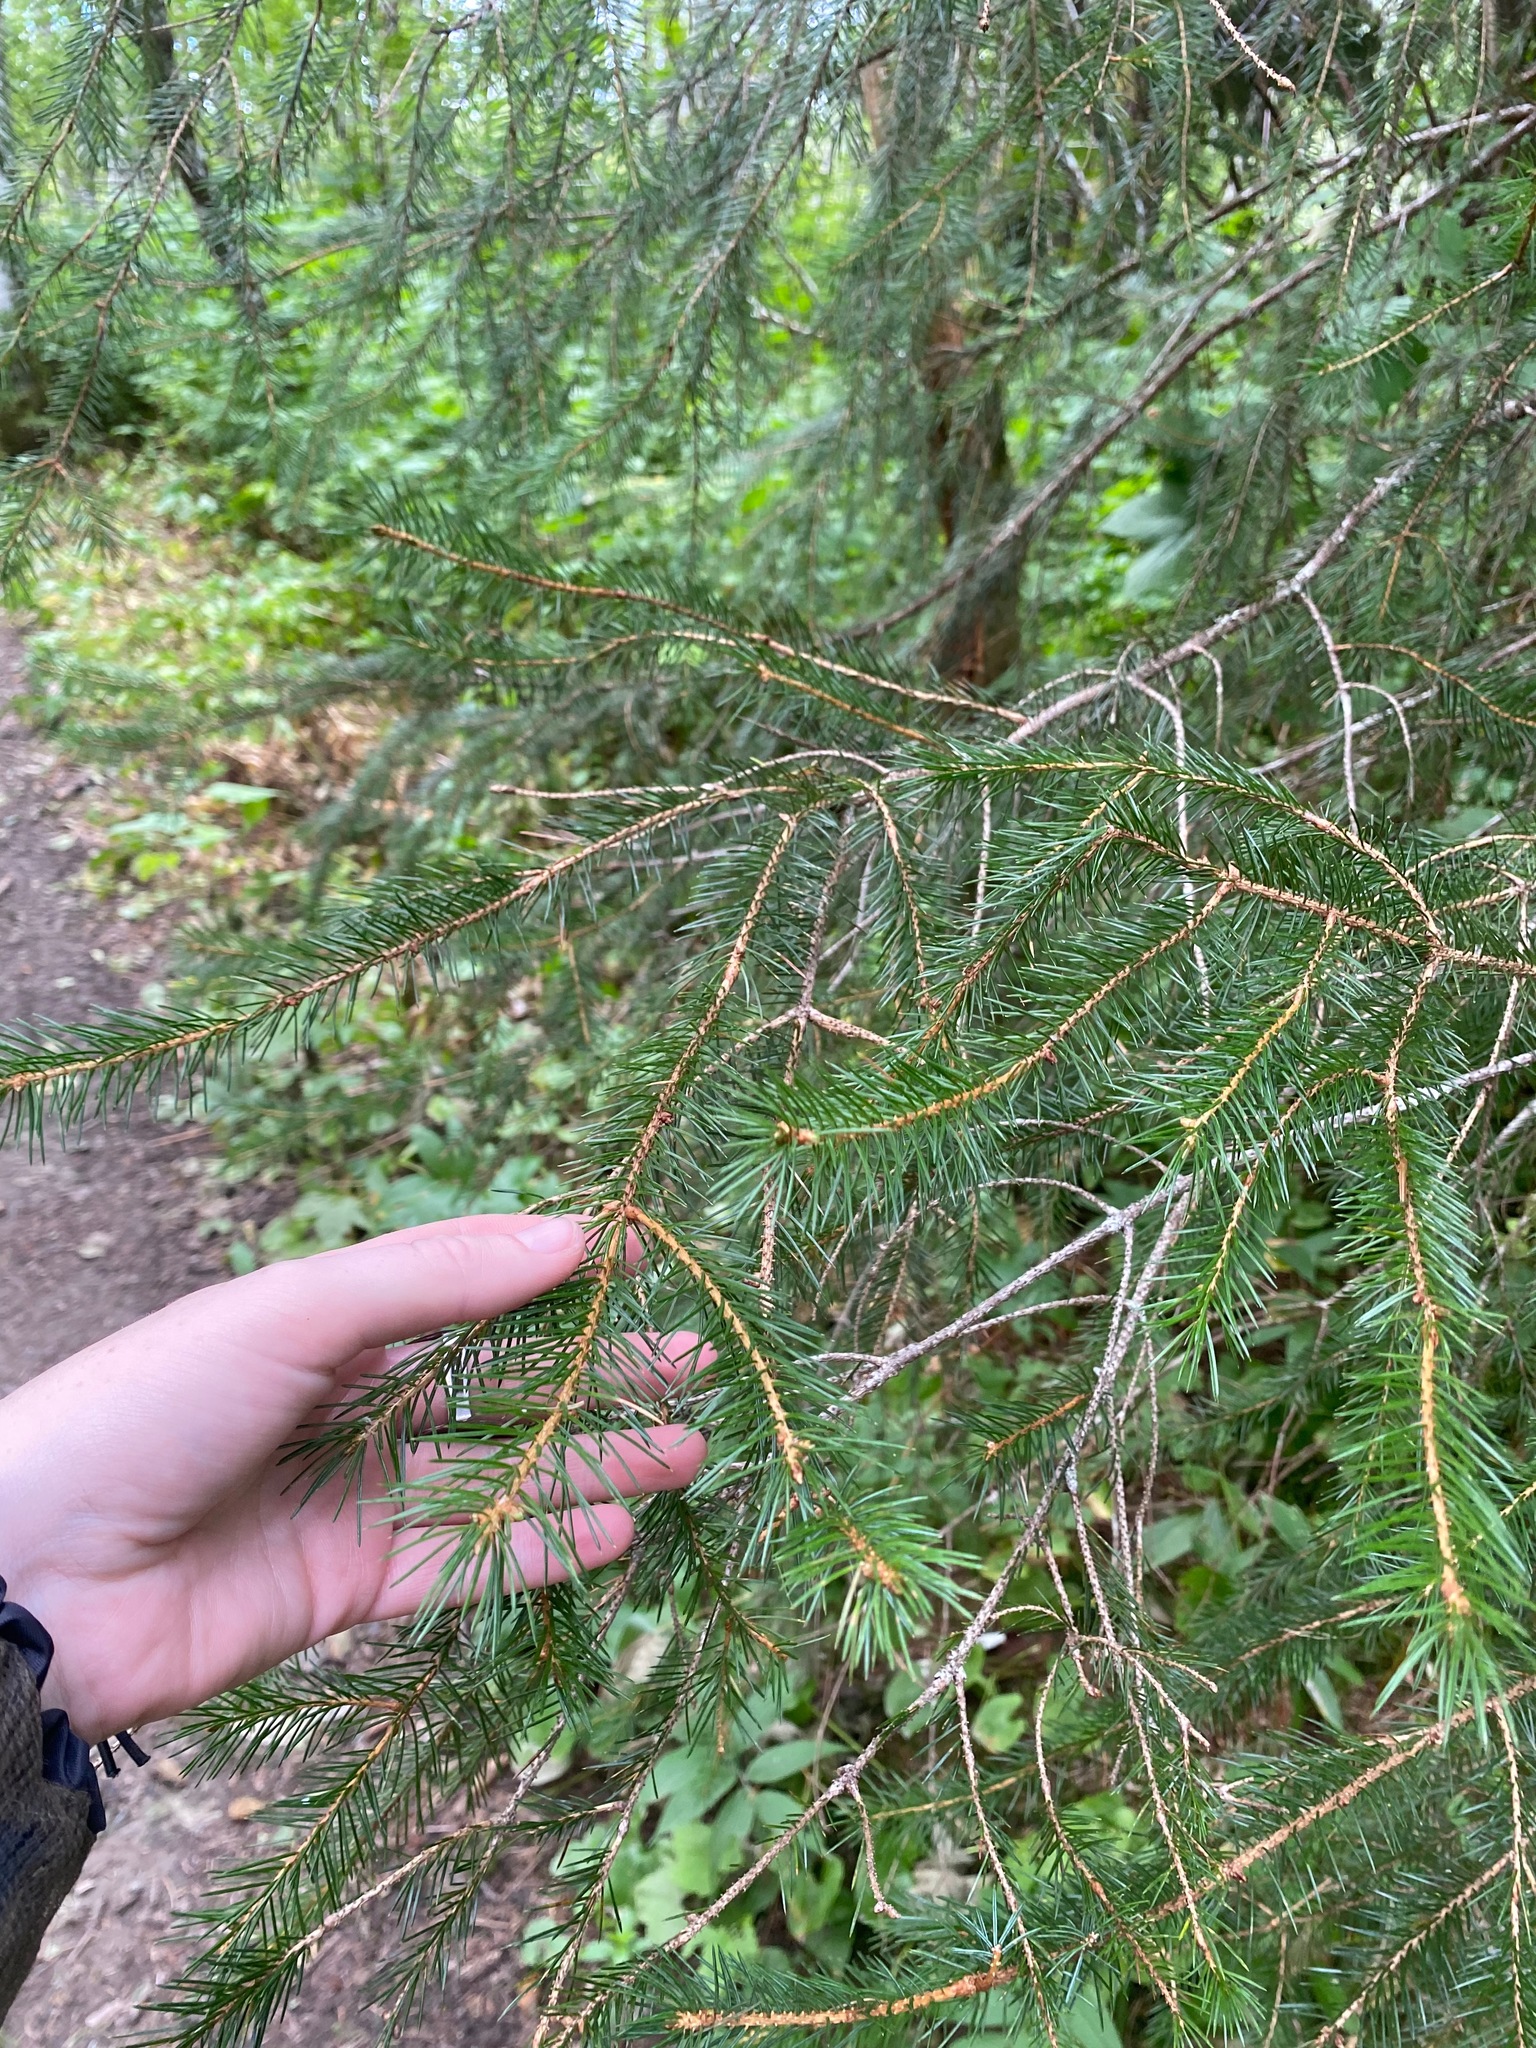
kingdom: Plantae
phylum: Tracheophyta
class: Pinopsida
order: Pinales
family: Pinaceae
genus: Picea
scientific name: Picea sitchensis
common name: Sitka spruce
